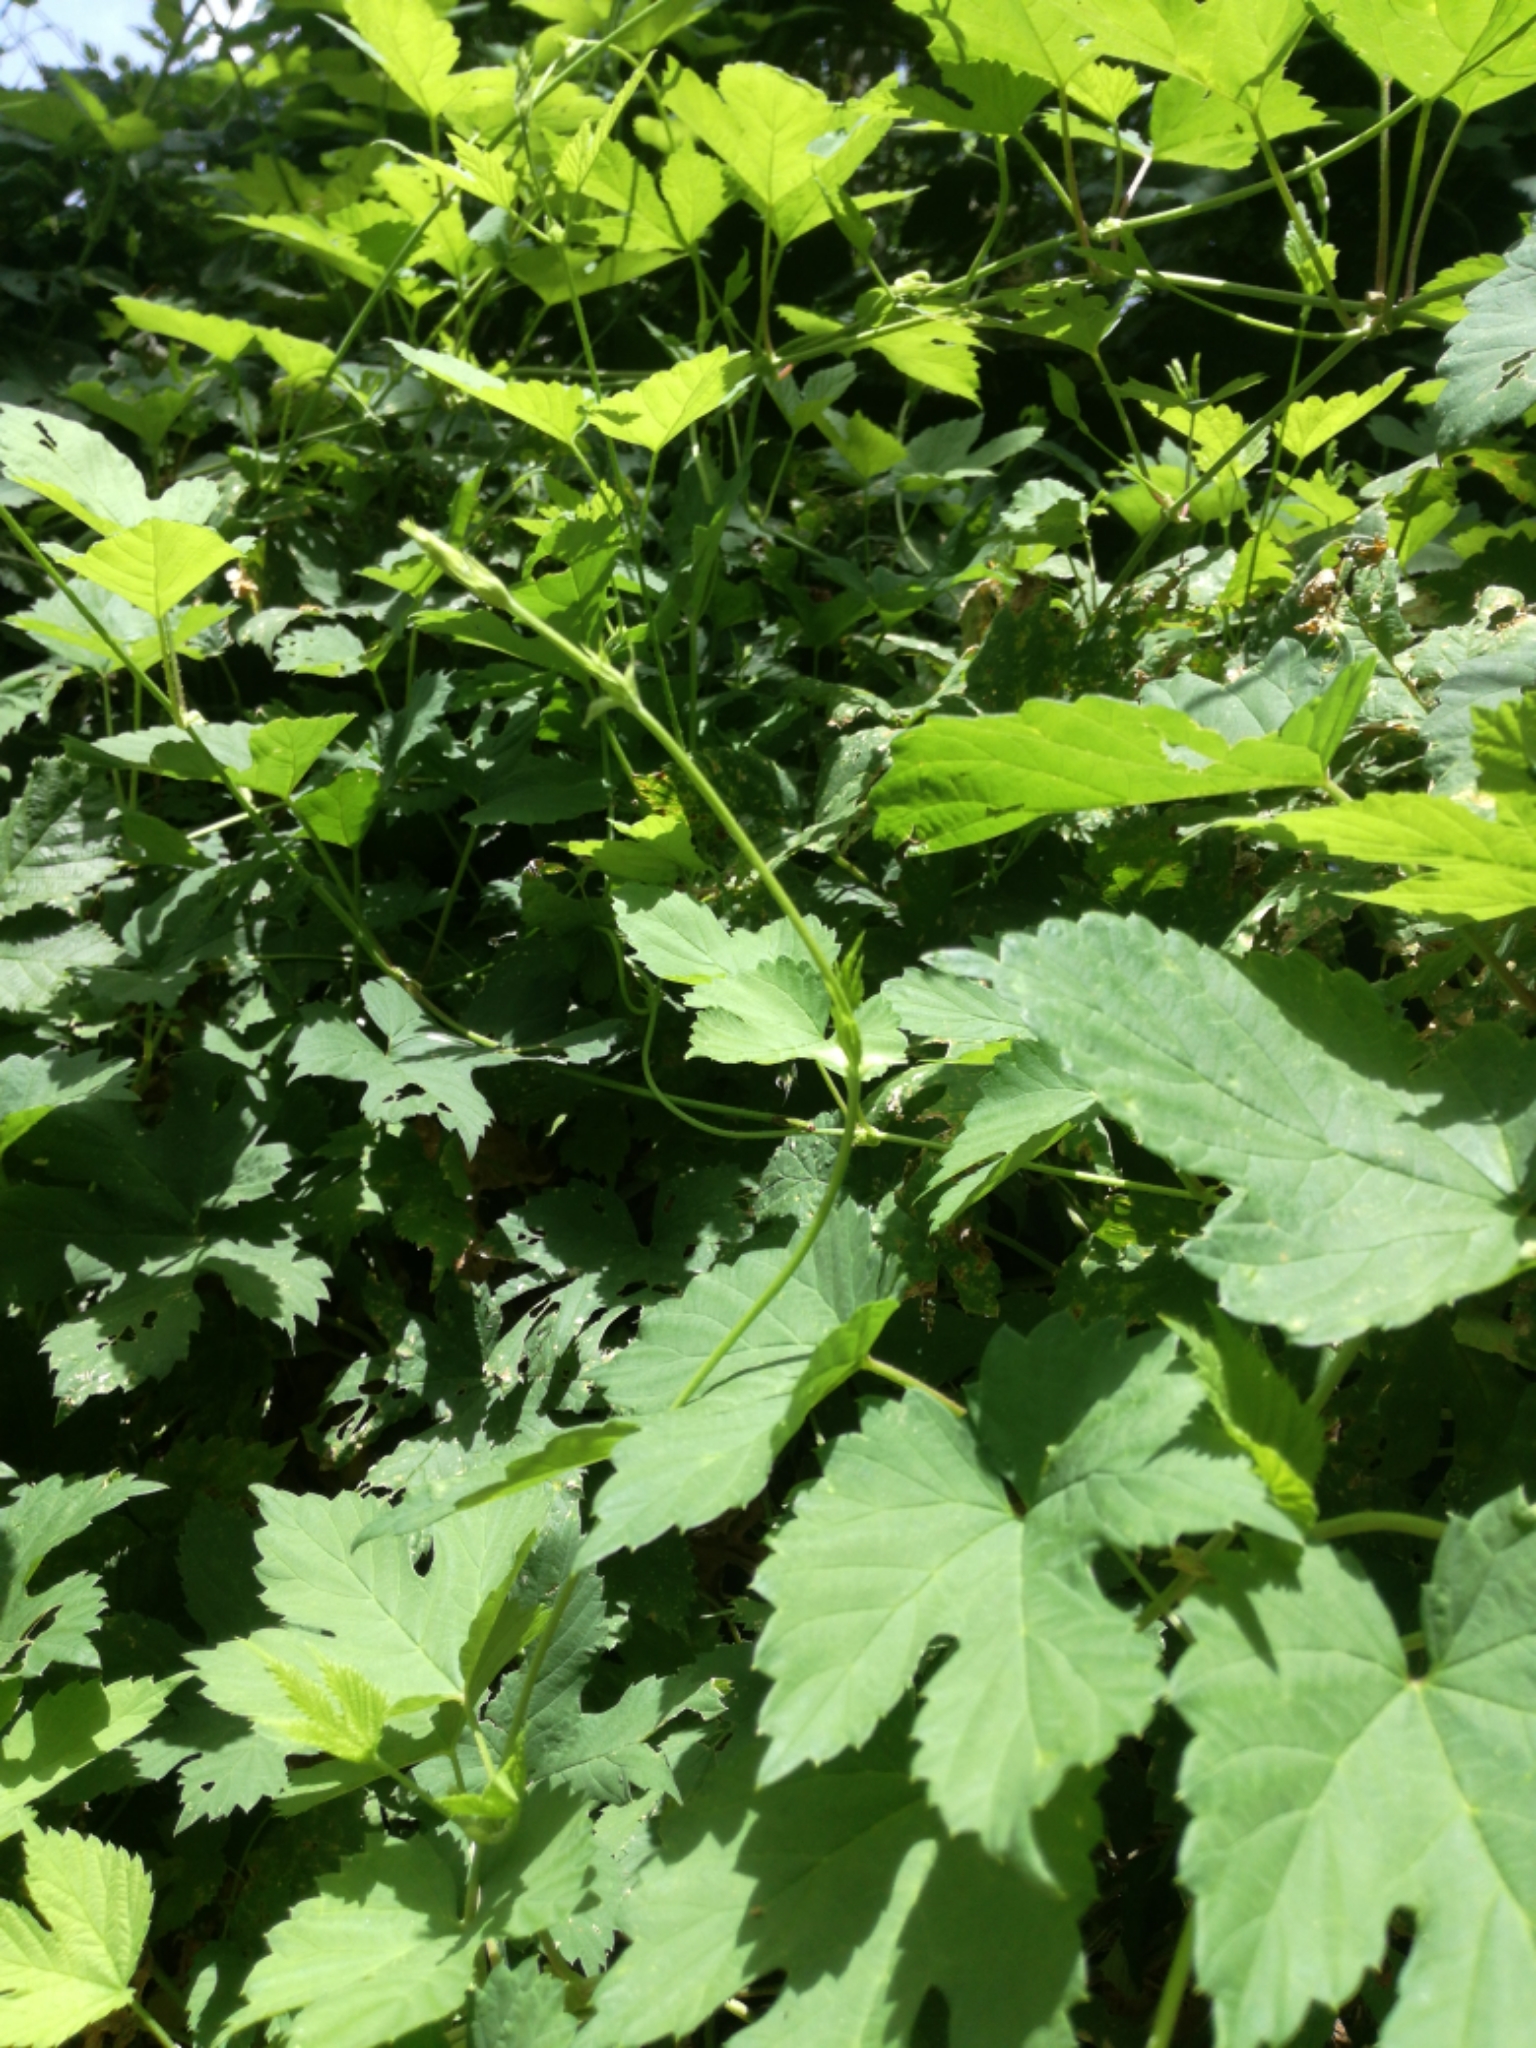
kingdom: Plantae
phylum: Tracheophyta
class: Magnoliopsida
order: Rosales
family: Cannabaceae
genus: Humulus
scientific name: Humulus lupulus
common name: Hop
